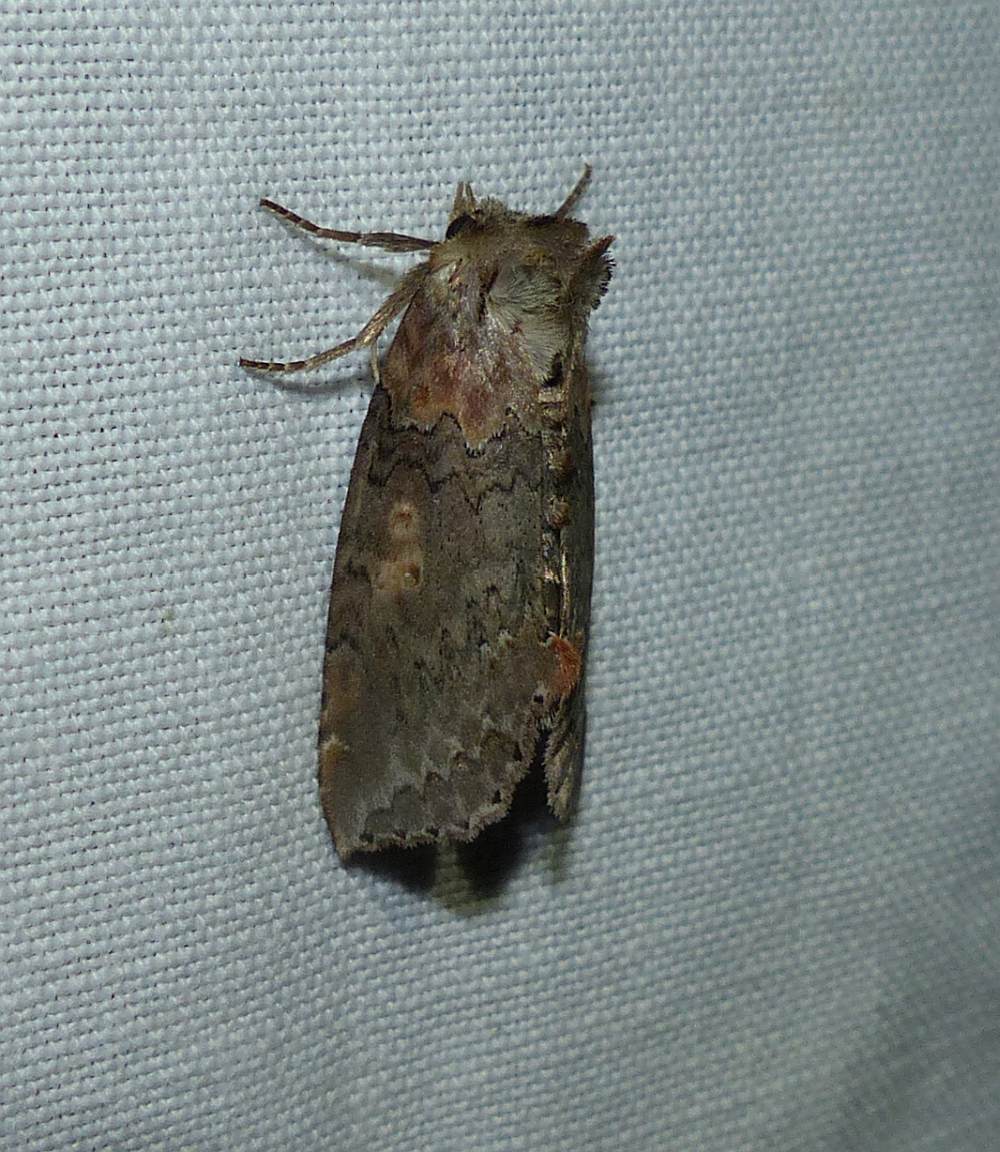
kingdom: Animalia
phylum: Arthropoda
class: Insecta
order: Lepidoptera
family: Drepanidae
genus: Pseudothyatira
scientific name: Pseudothyatira cymatophoroides
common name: Tufted thyatirid moth
